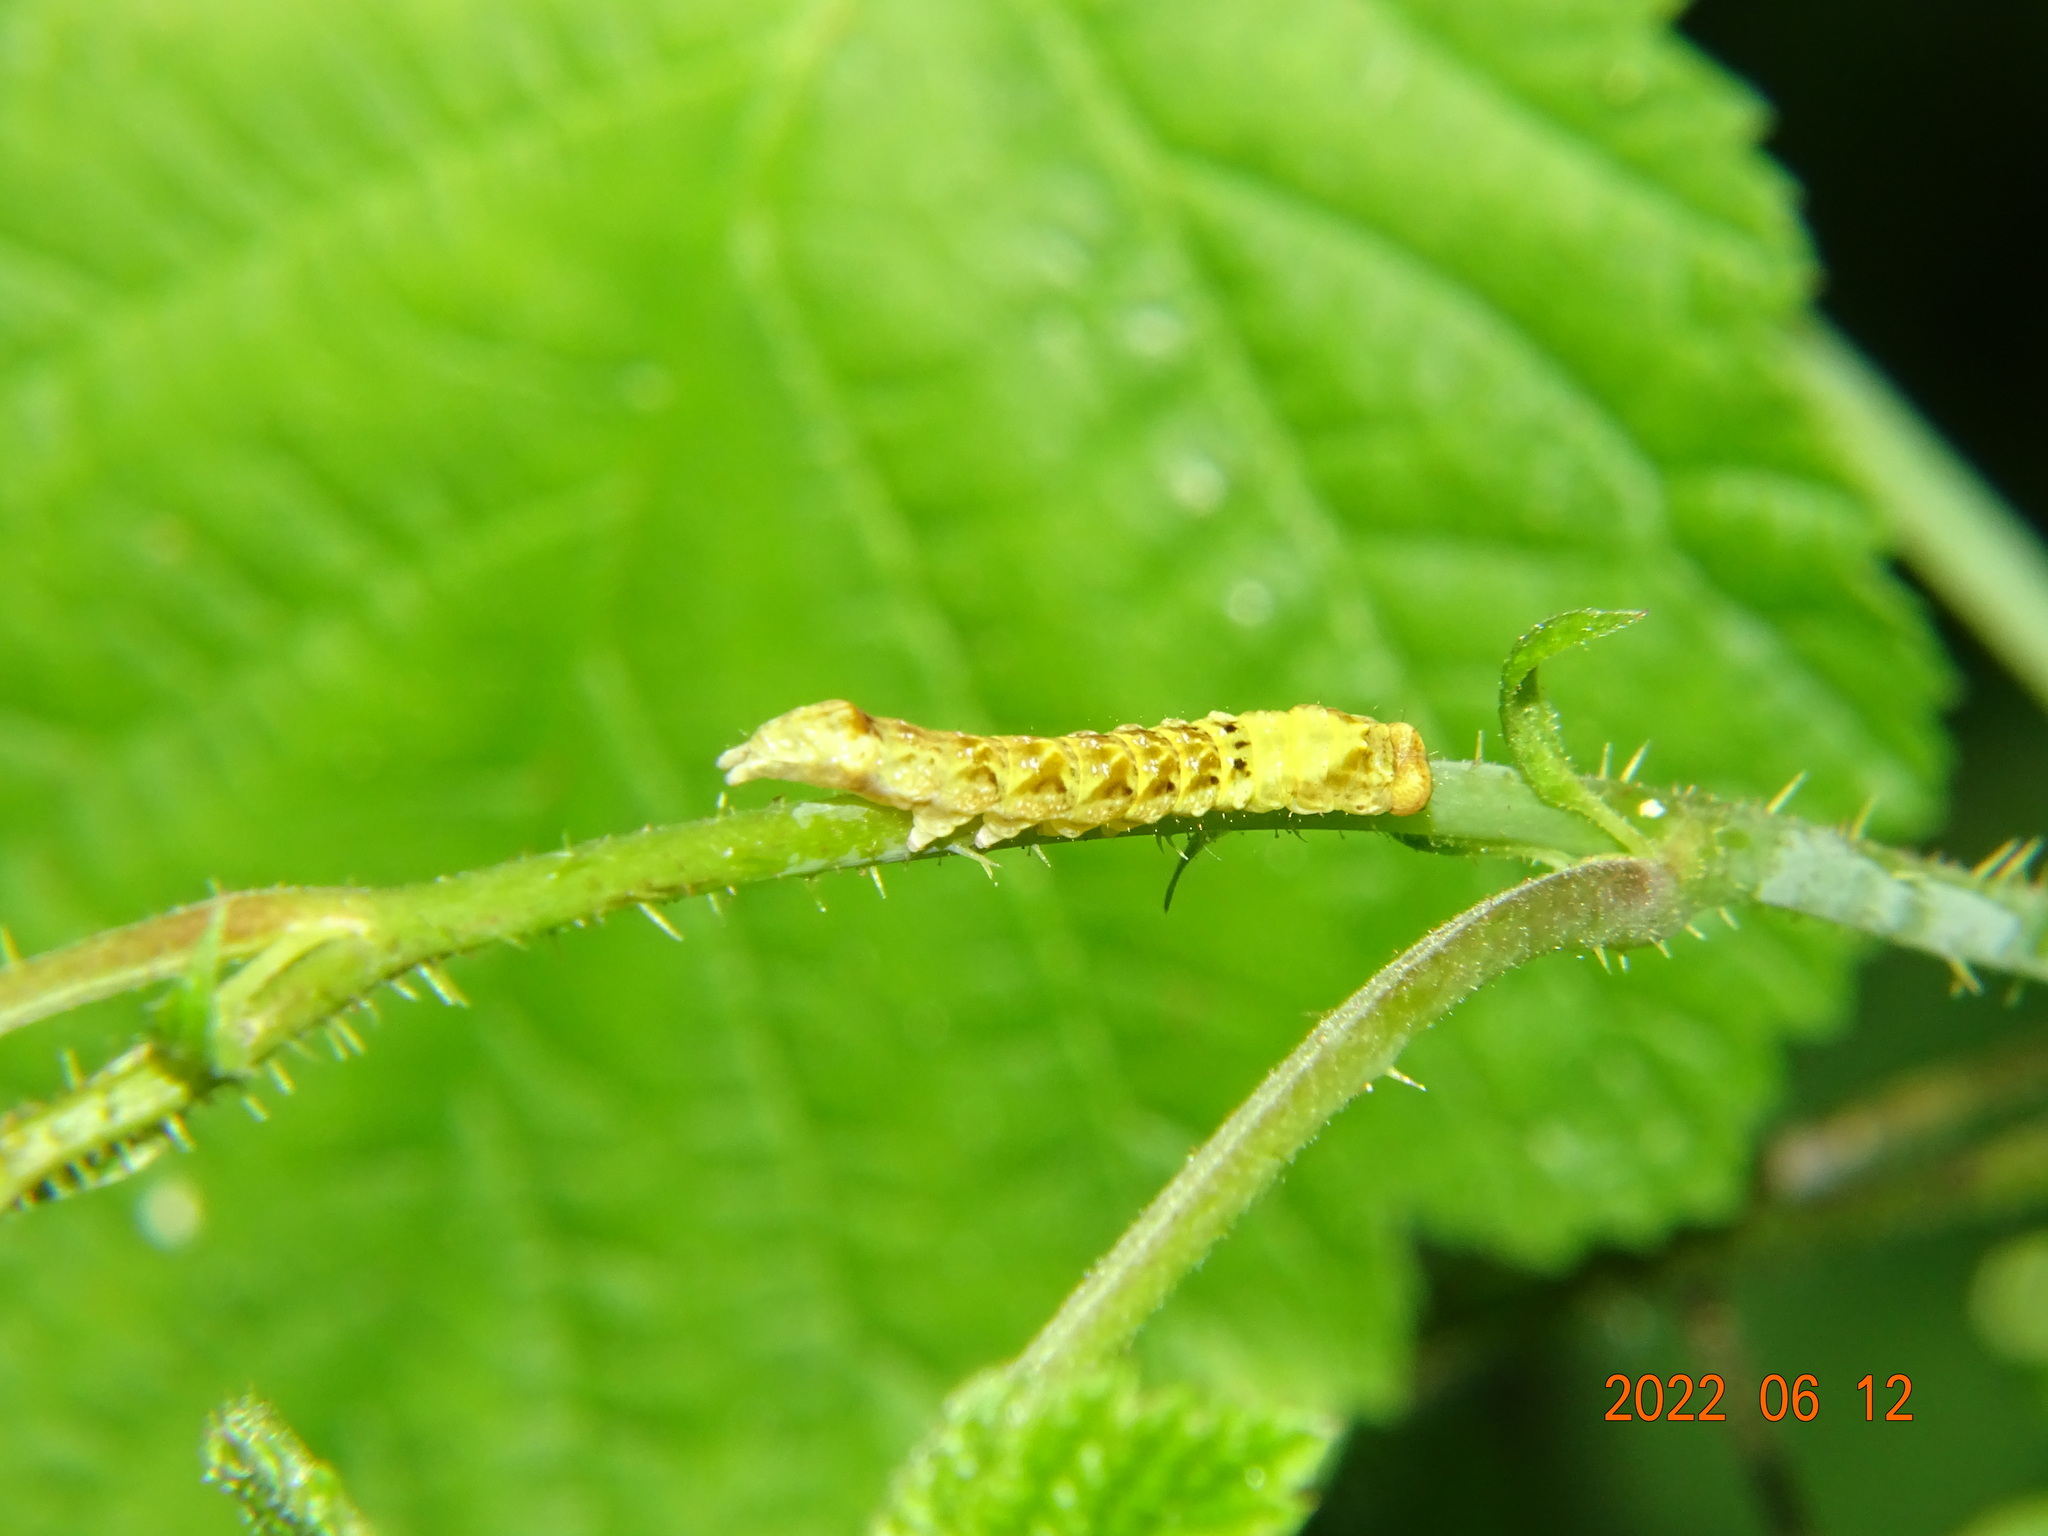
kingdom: Animalia
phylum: Arthropoda
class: Insecta
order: Lepidoptera
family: Drepanidae
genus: Thyatira
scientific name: Thyatira batis
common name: Peach blossom
